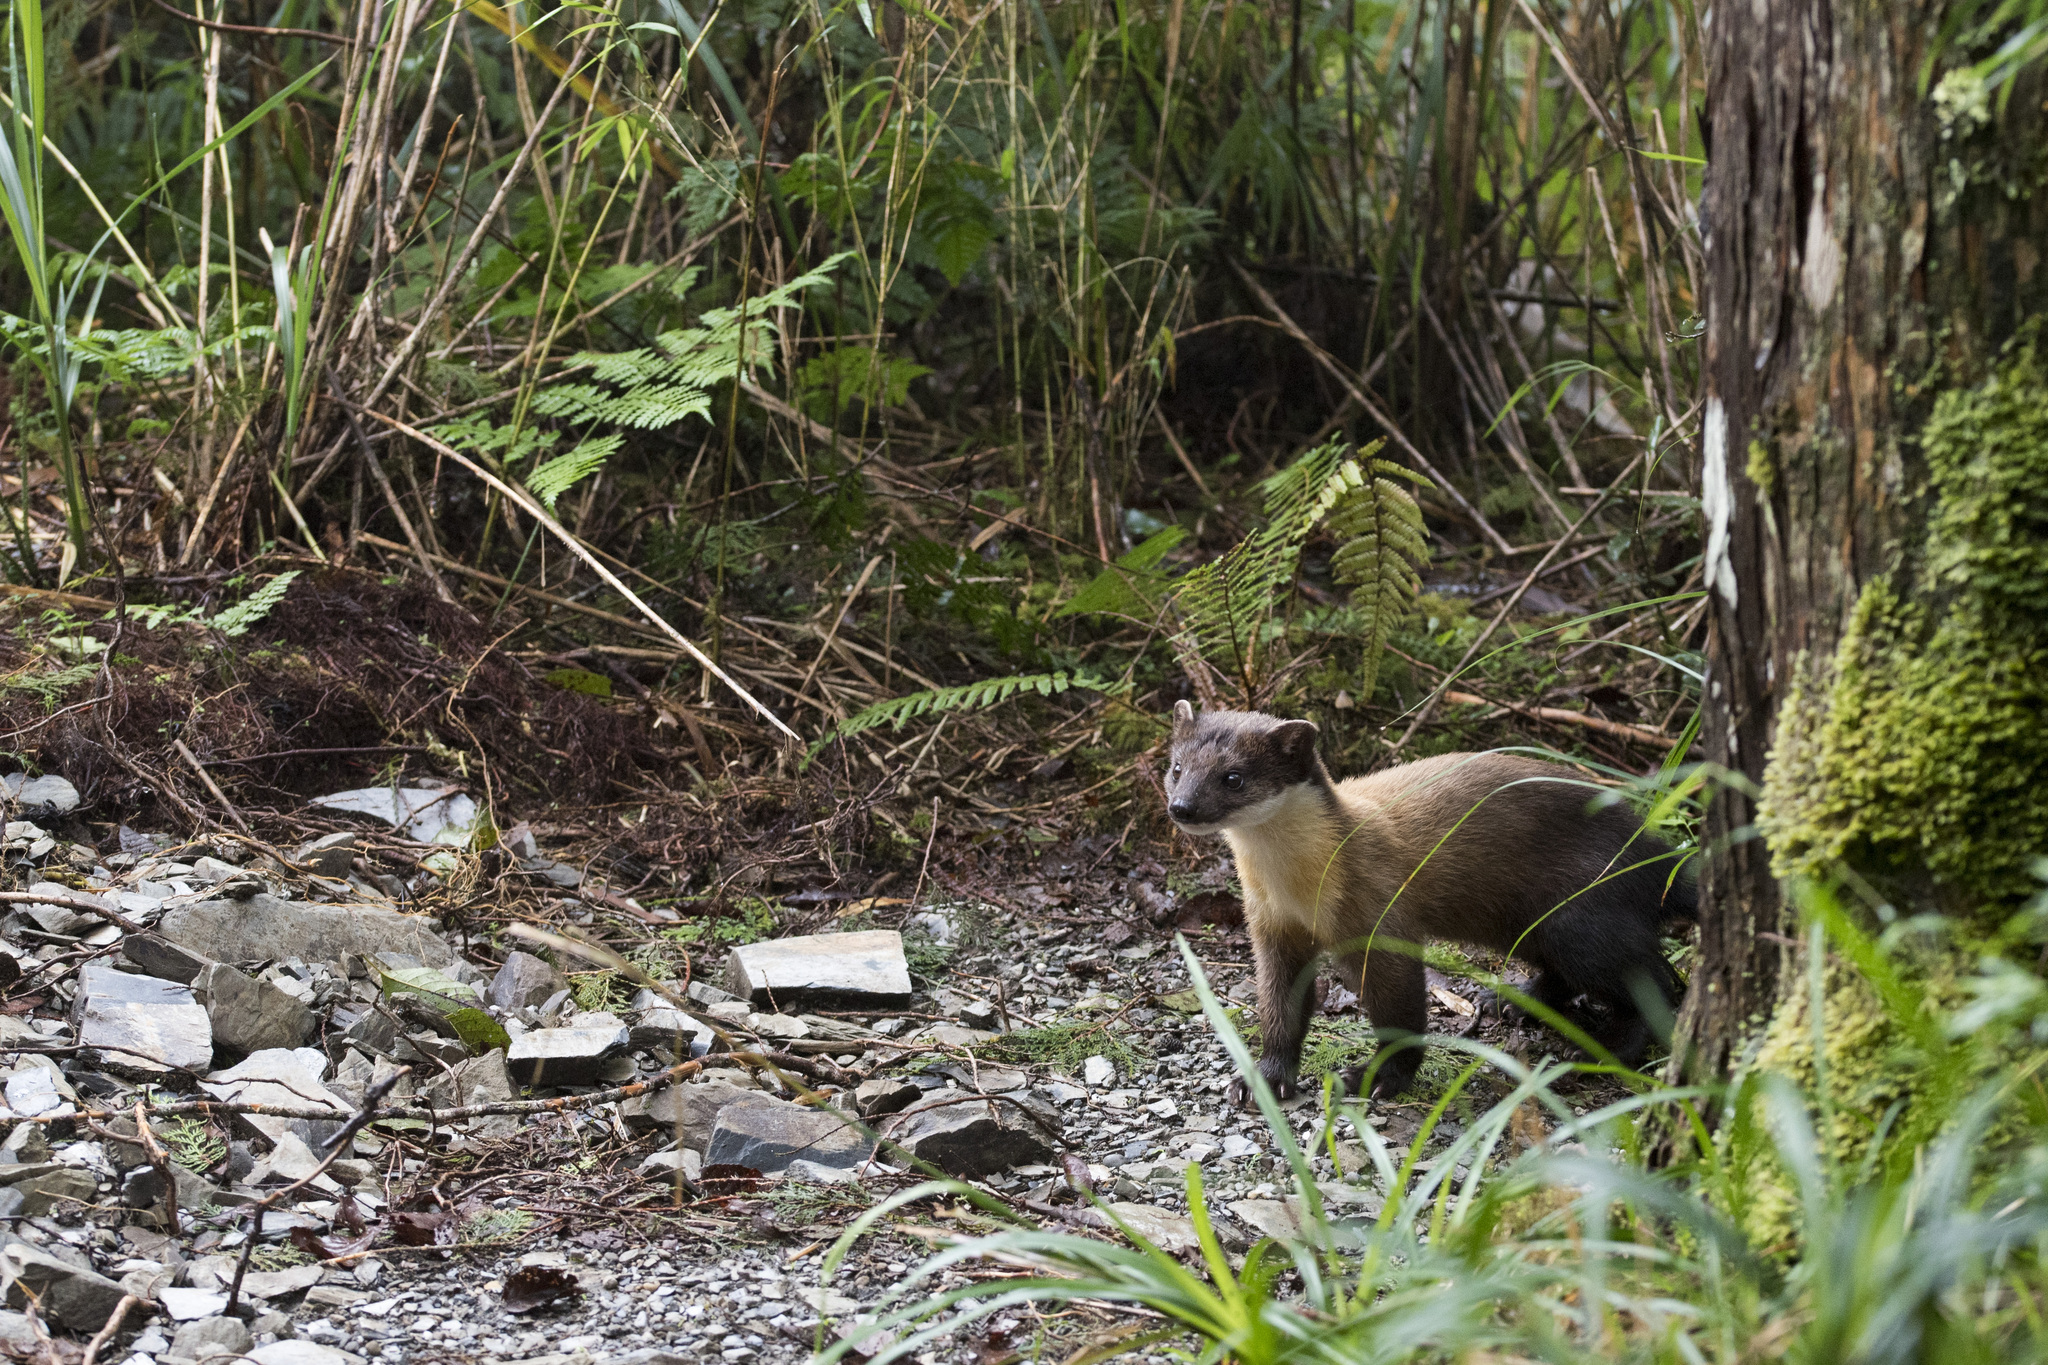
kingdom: Animalia
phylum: Chordata
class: Mammalia
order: Carnivora
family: Mustelidae
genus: Martes
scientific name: Martes flavigula
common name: Yellow-throated marten
